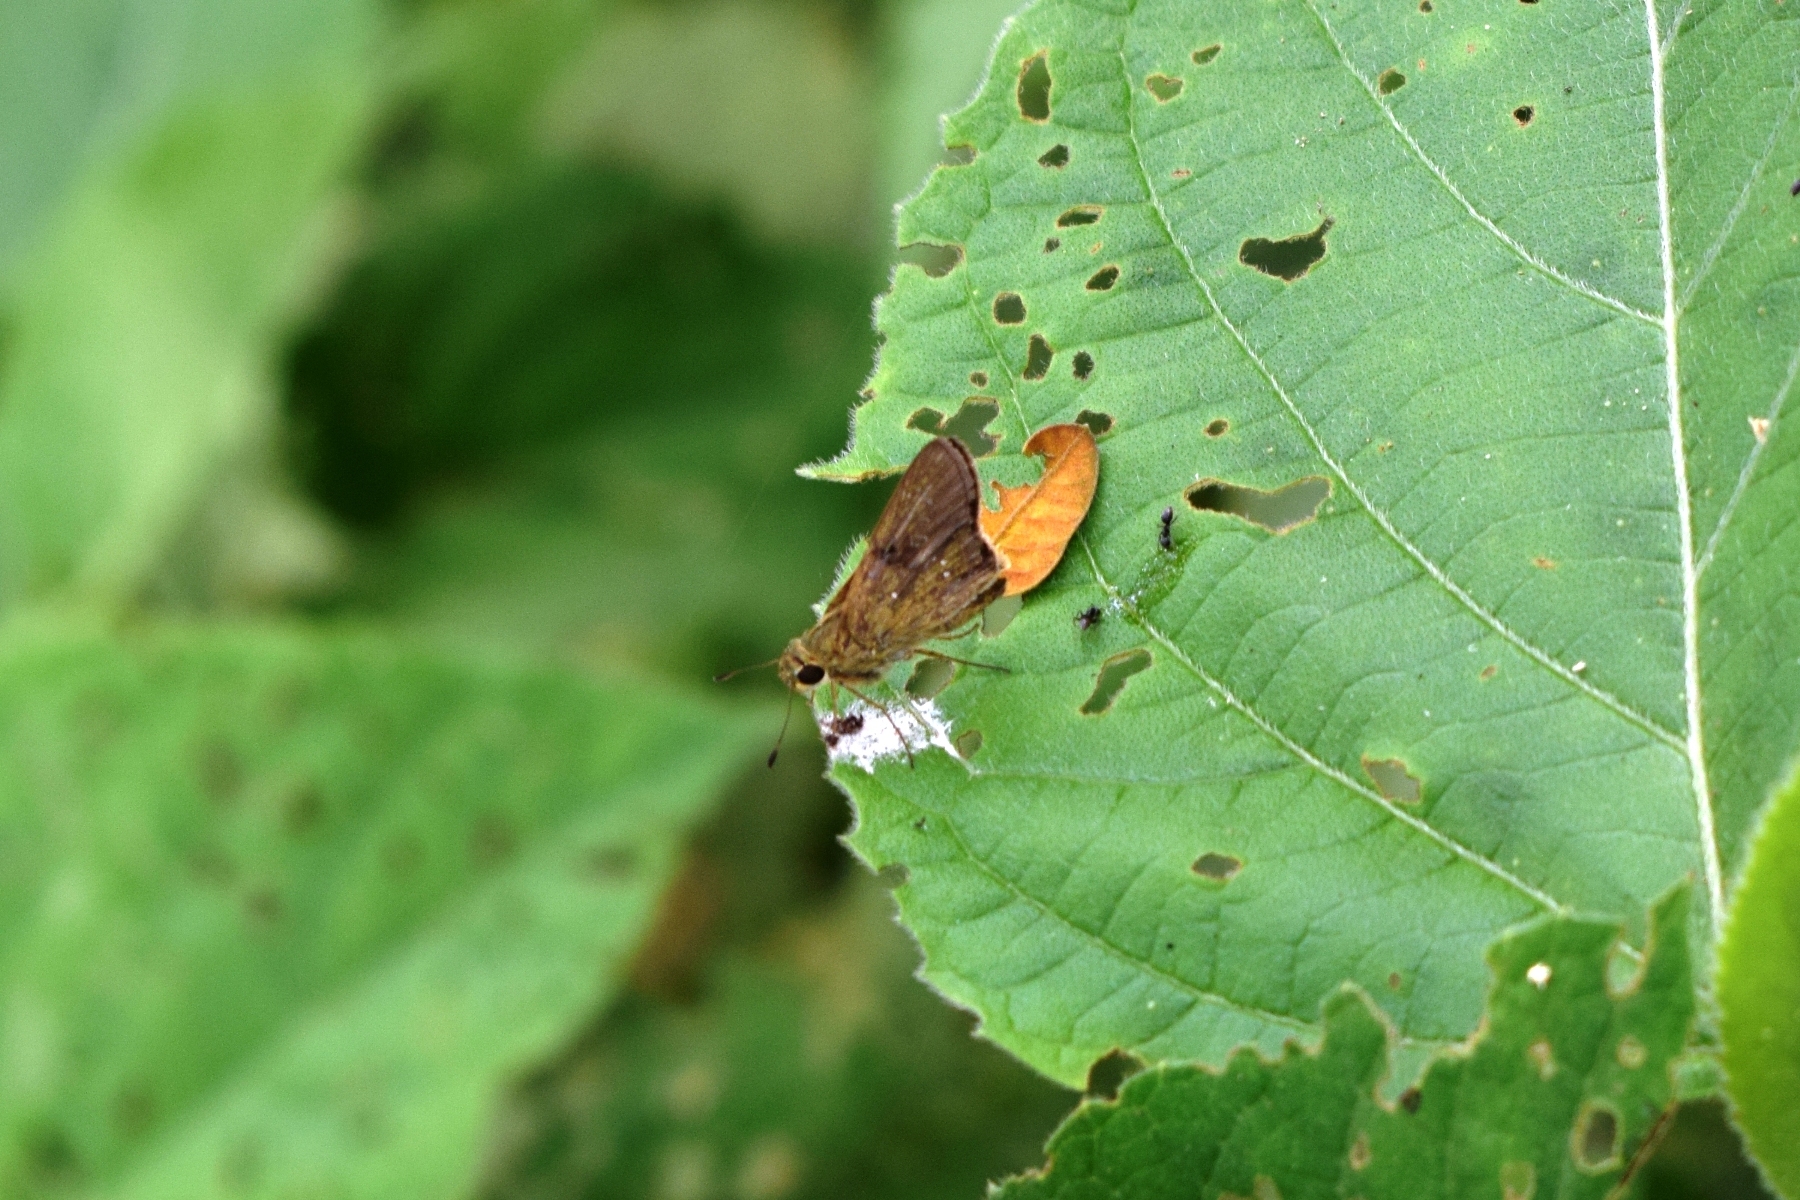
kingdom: Animalia
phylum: Arthropoda
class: Insecta
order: Lepidoptera
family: Hesperiidae
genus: Pelopidas
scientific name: Pelopidas mathias
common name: Black-branded swift
